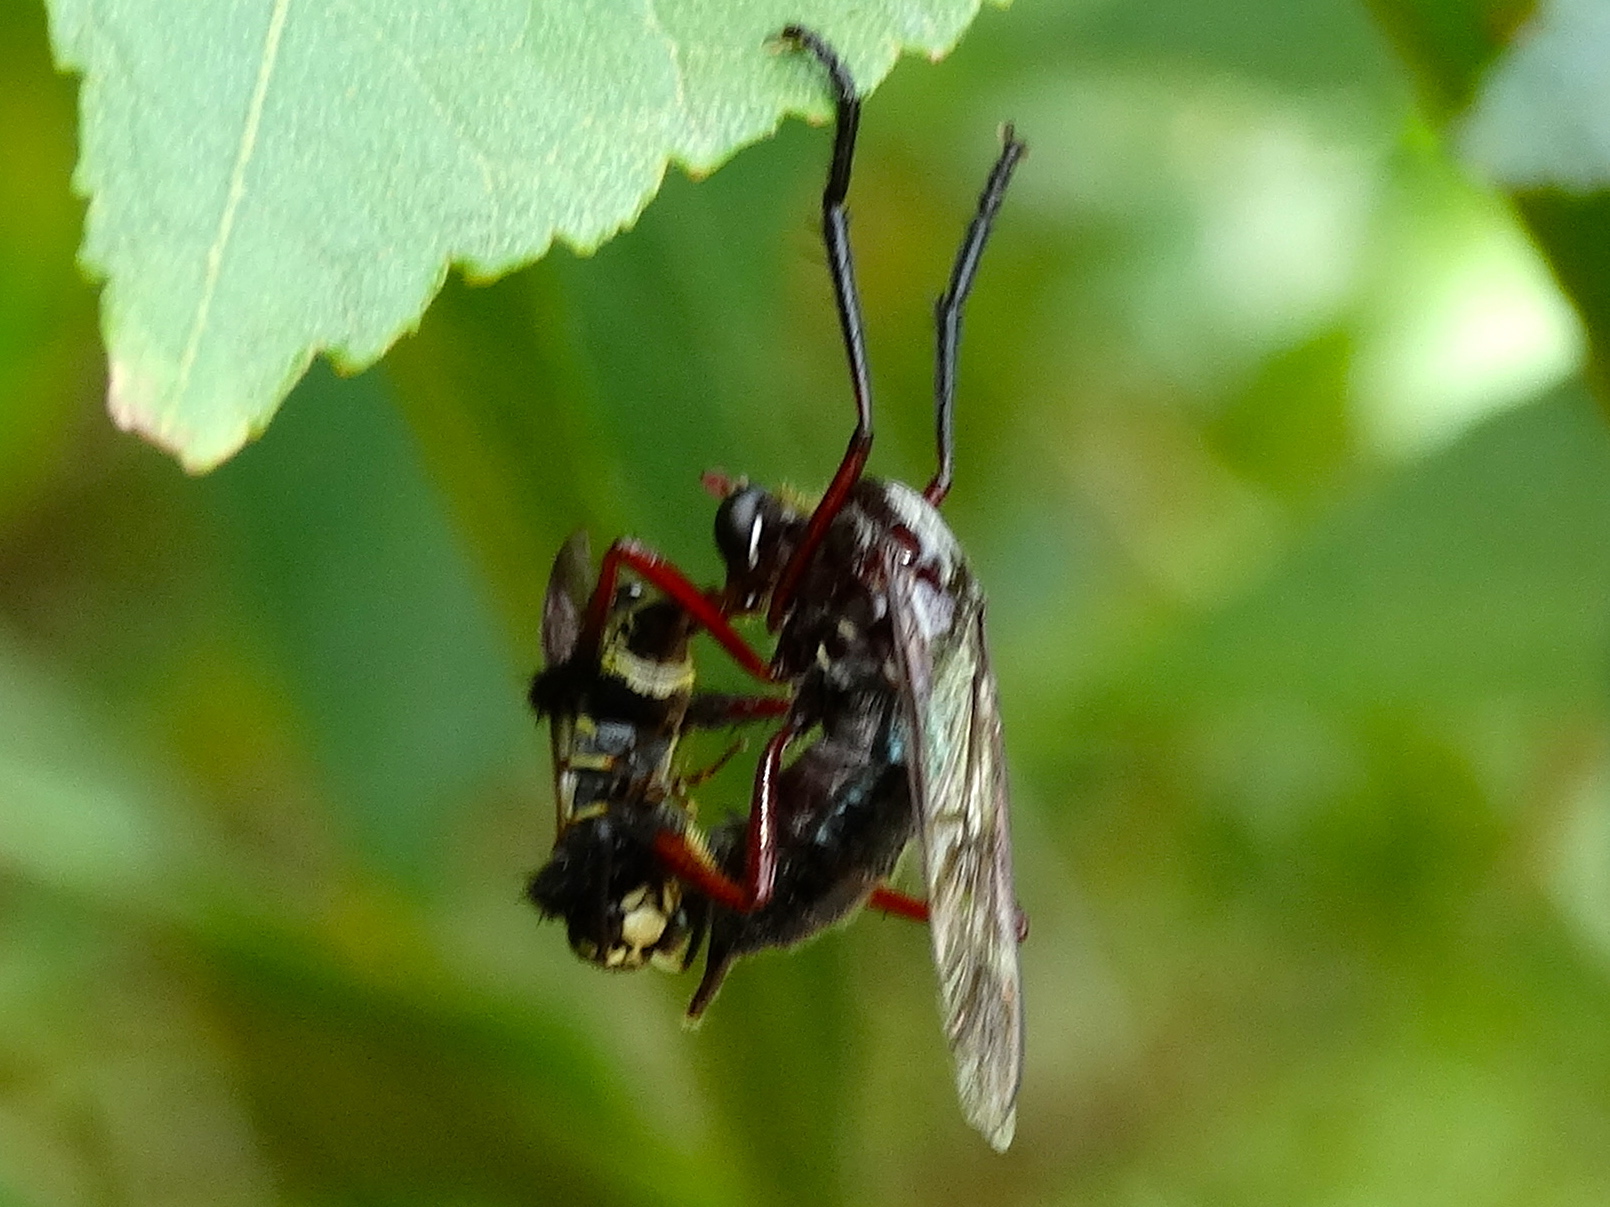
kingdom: Animalia
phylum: Arthropoda
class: Insecta
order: Diptera
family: Asilidae
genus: Pseudorus
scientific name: Pseudorus
